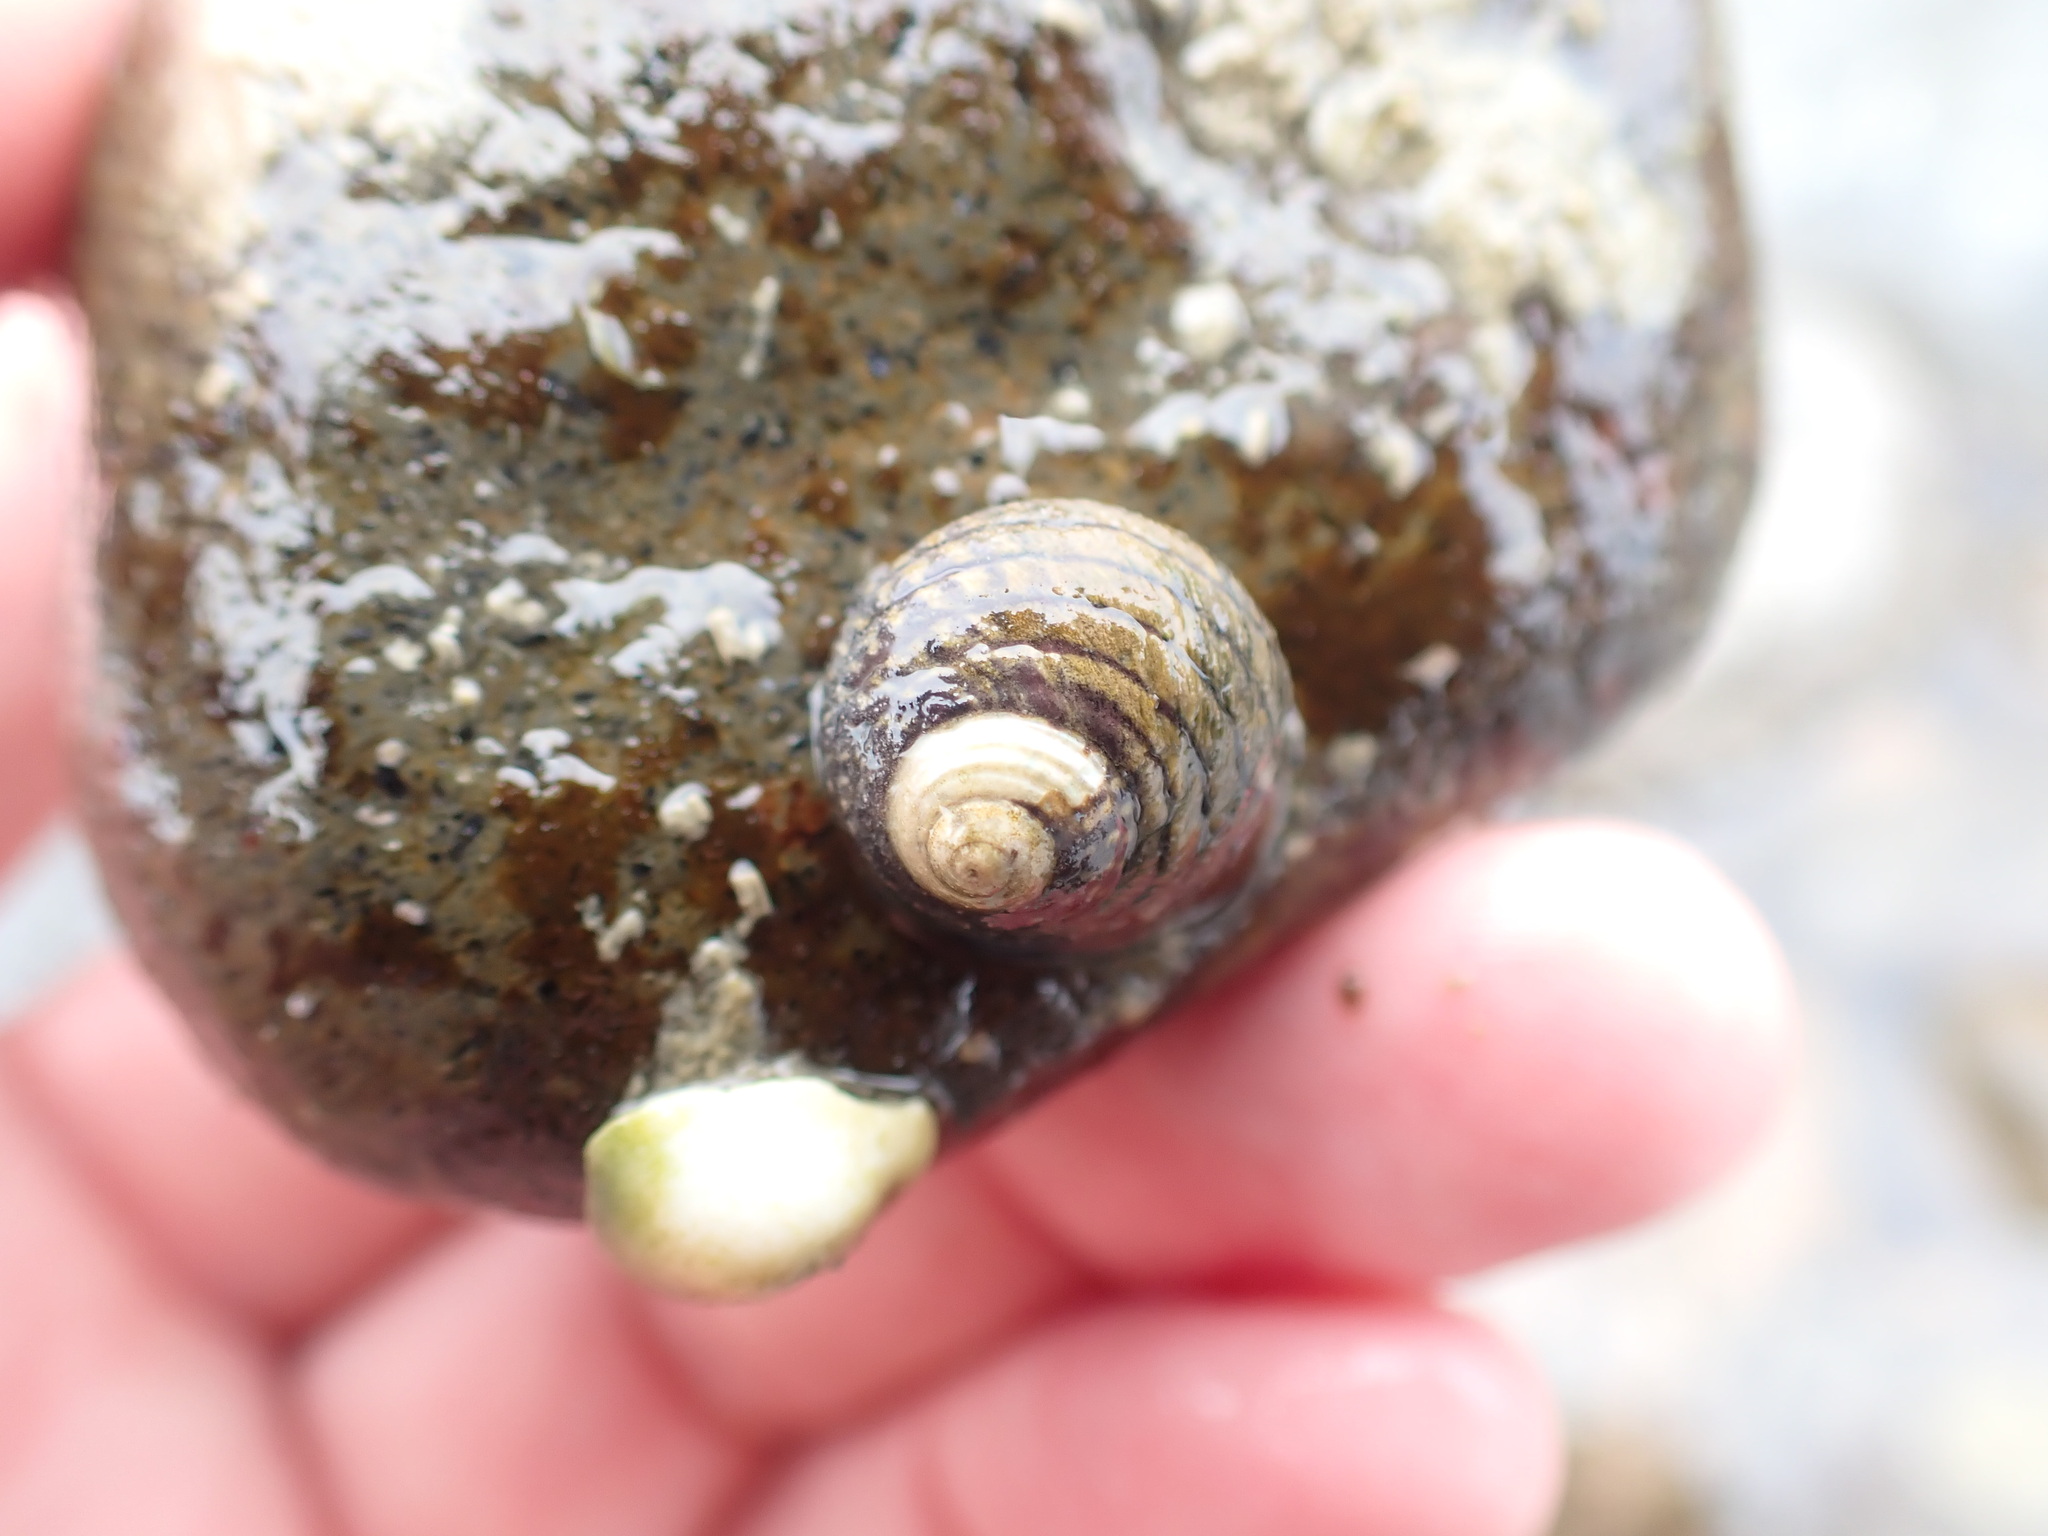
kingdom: Animalia
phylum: Mollusca
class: Gastropoda
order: Trochida
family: Trochidae
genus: Diloma
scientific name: Diloma aethiops
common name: Scorched monodont
